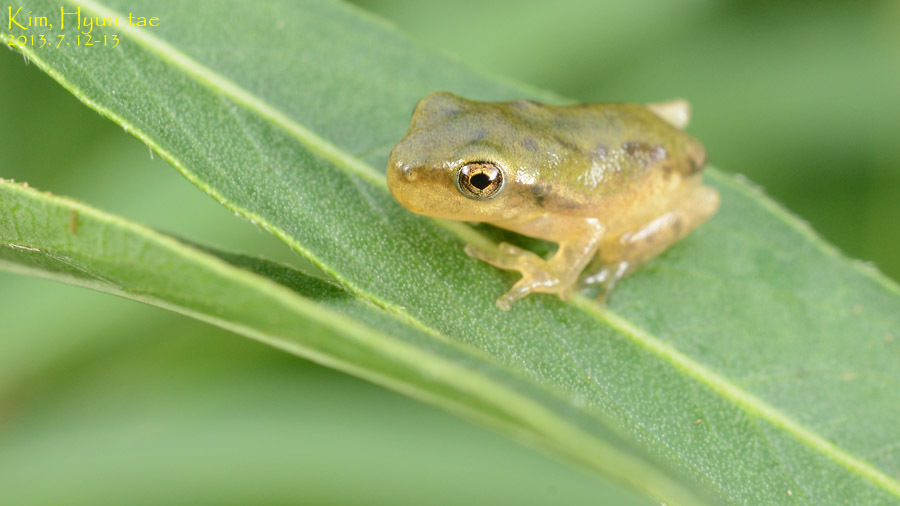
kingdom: Animalia
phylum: Chordata
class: Amphibia
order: Anura
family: Hylidae
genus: Hyla
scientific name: Hyla
